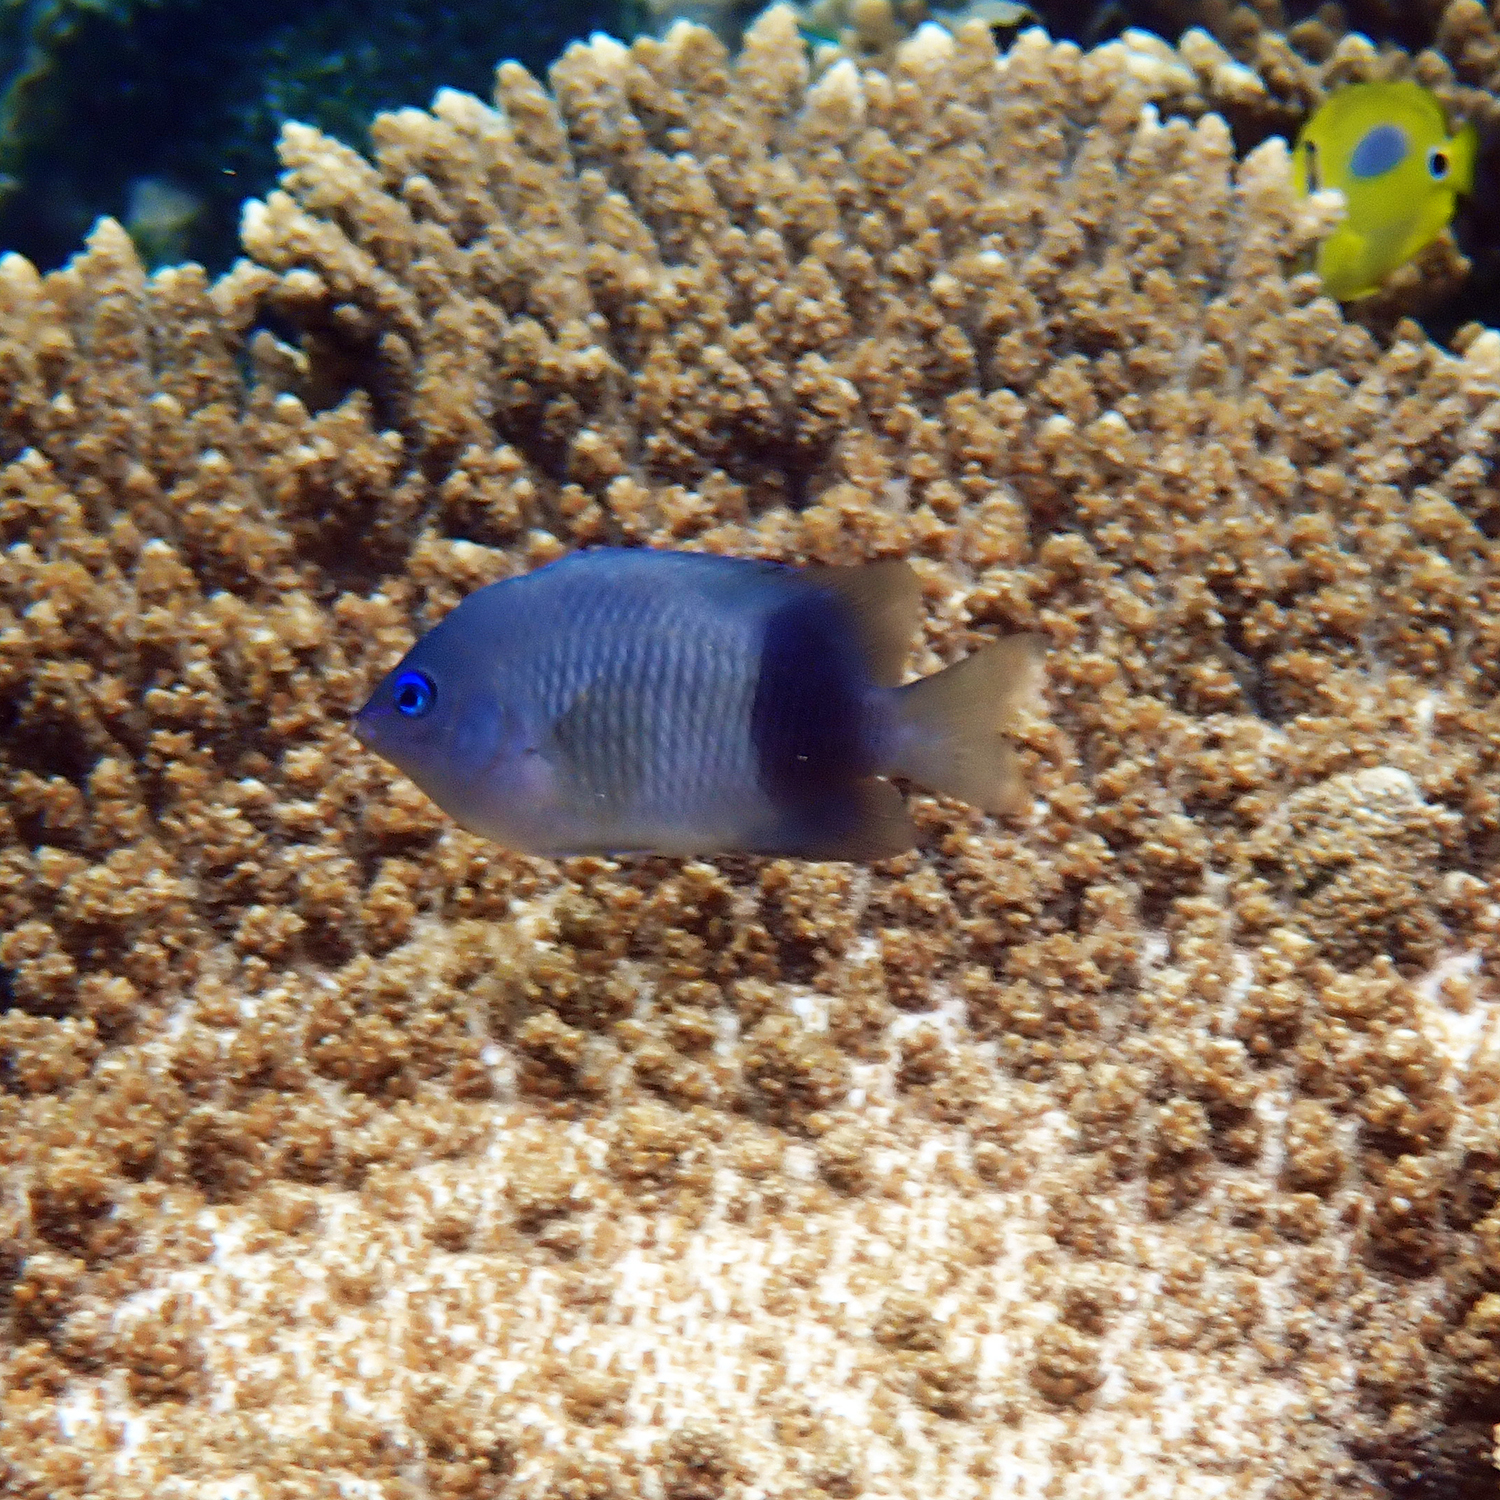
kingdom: Animalia
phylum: Chordata
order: Perciformes
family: Pomacentridae
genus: Plectroglyphidodon
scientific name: Plectroglyphidodon johnstonianus
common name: Johnston damsel
